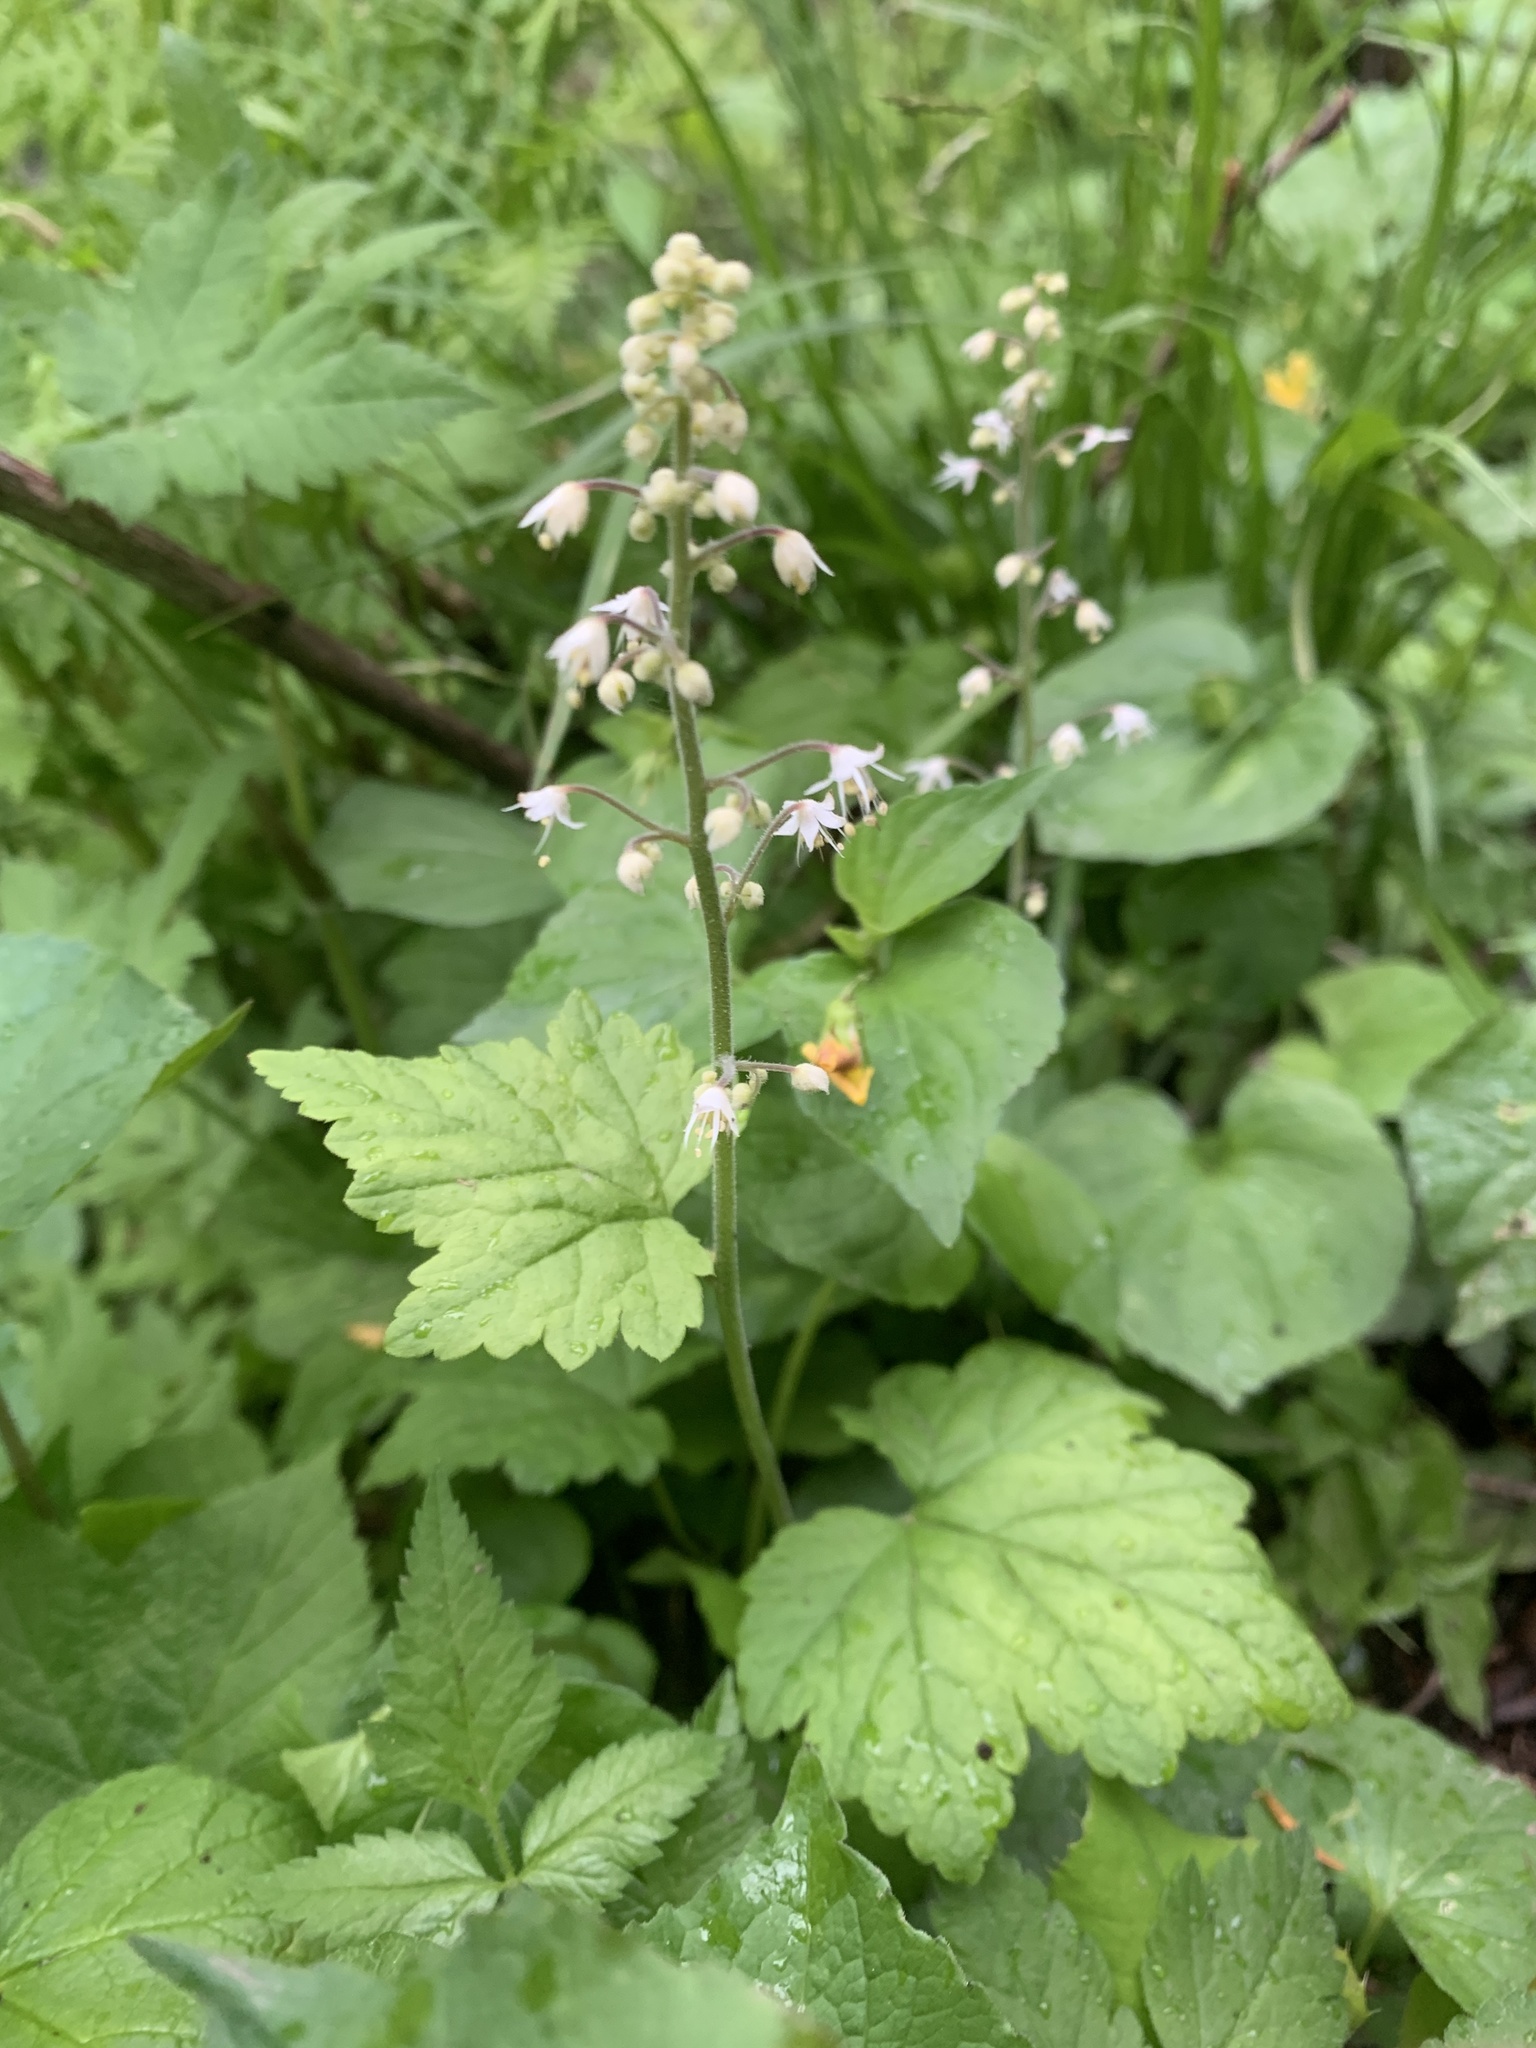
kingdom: Plantae
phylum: Tracheophyta
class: Magnoliopsida
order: Saxifragales
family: Saxifragaceae
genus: Tiarella
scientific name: Tiarella trifoliata
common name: Sugar-scoop
